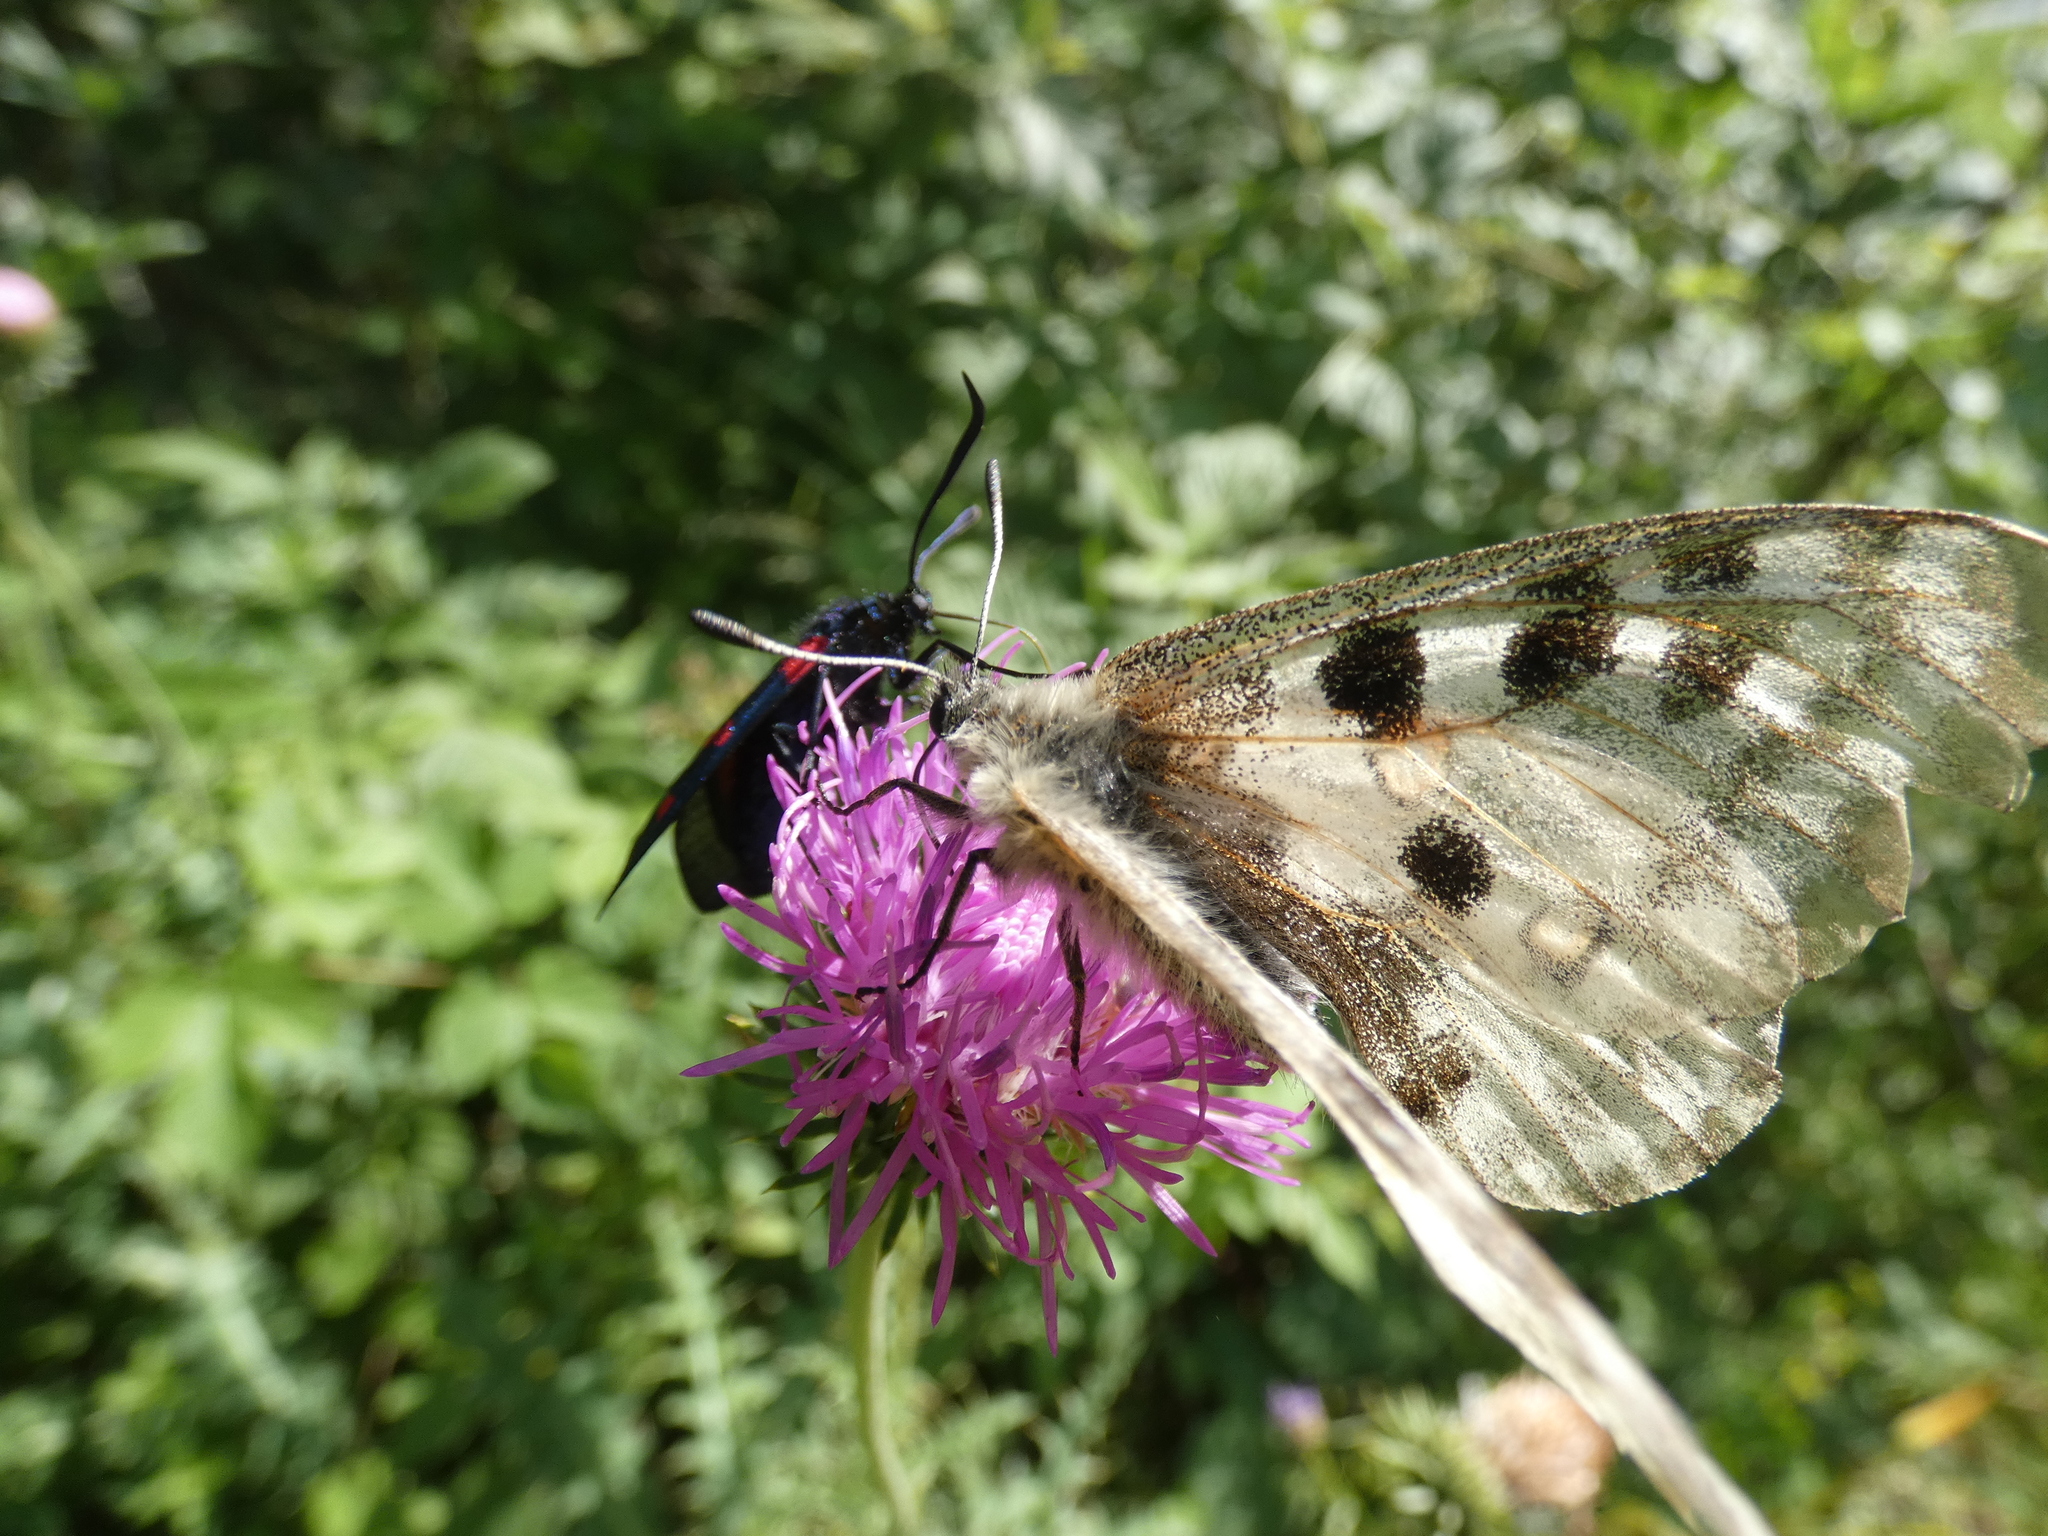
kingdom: Animalia
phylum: Arthropoda
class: Insecta
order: Lepidoptera
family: Papilionidae
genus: Parnassius
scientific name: Parnassius apollo
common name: Apollo
